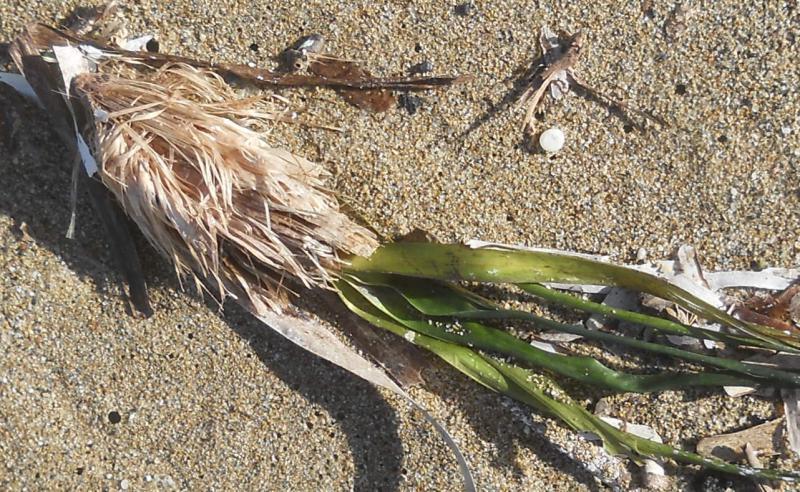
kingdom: Plantae
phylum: Tracheophyta
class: Liliopsida
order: Alismatales
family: Posidoniaceae
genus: Posidonia
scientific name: Posidonia oceanica
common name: Mediterranean tapeweed
